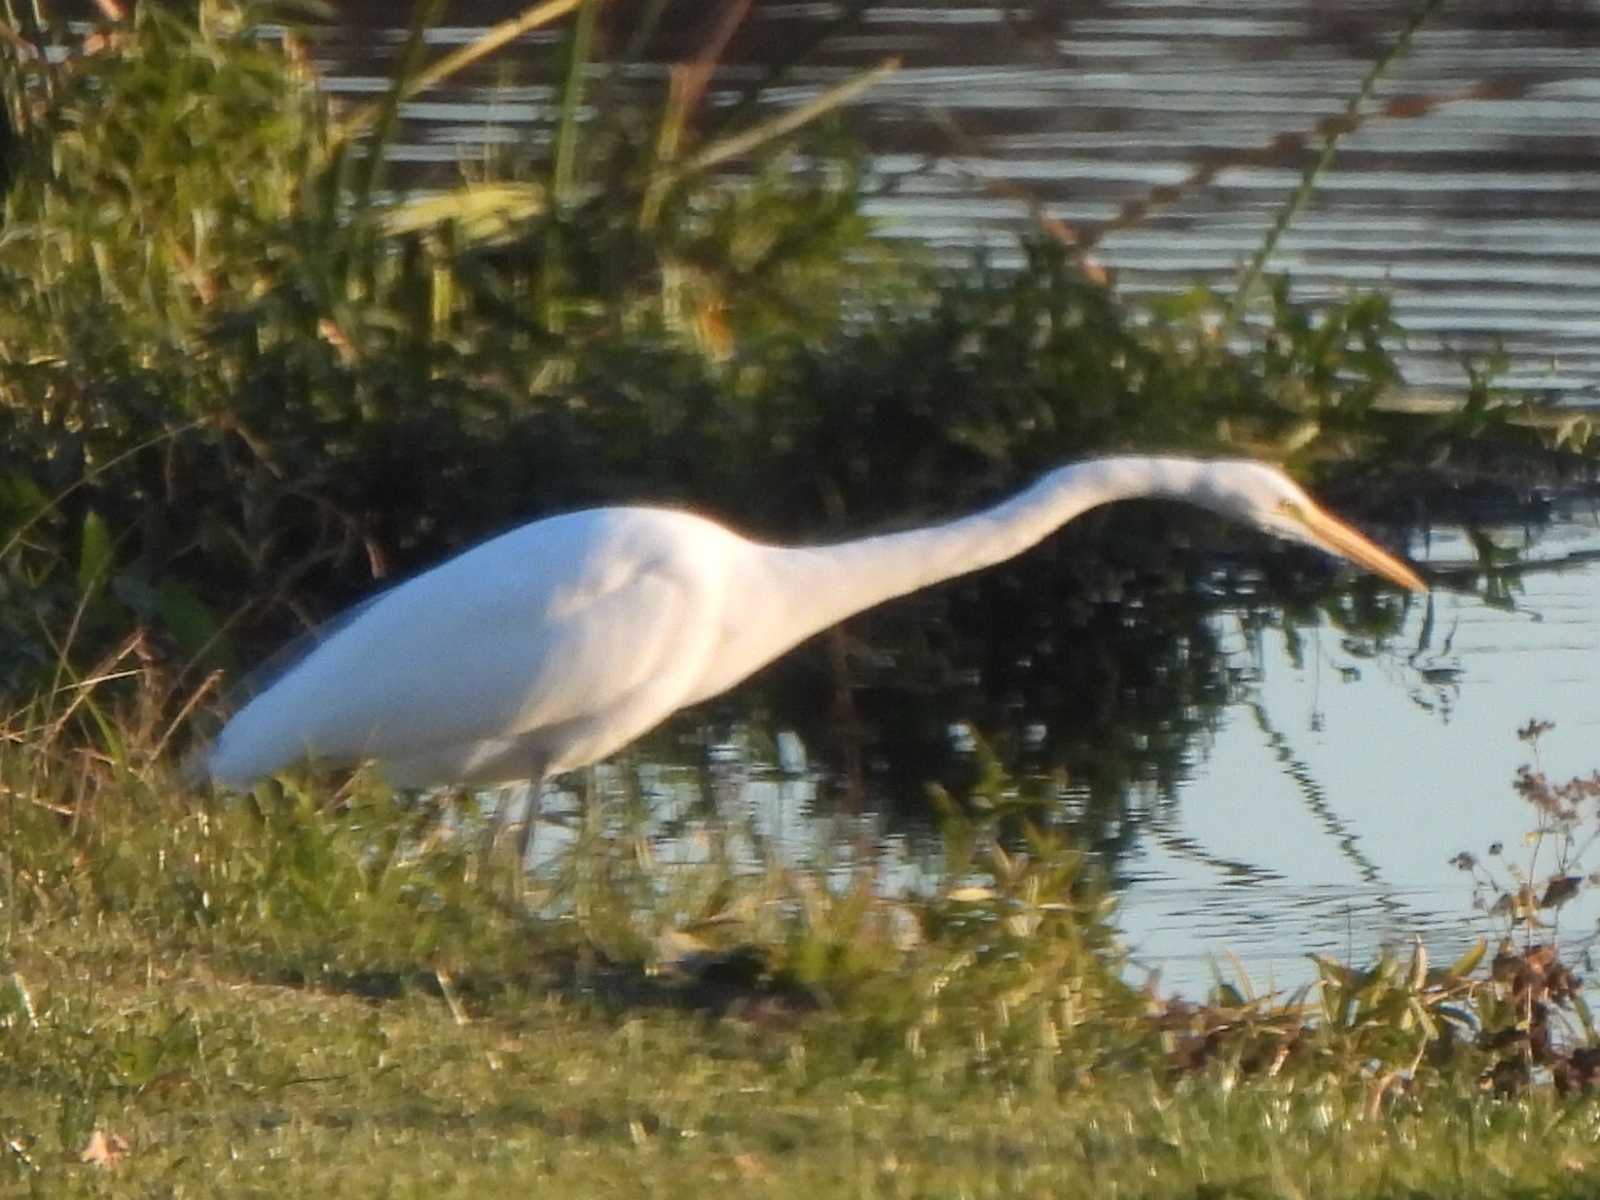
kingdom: Animalia
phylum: Chordata
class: Aves
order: Pelecaniformes
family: Ardeidae
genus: Ardea
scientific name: Ardea alba
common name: Great egret
